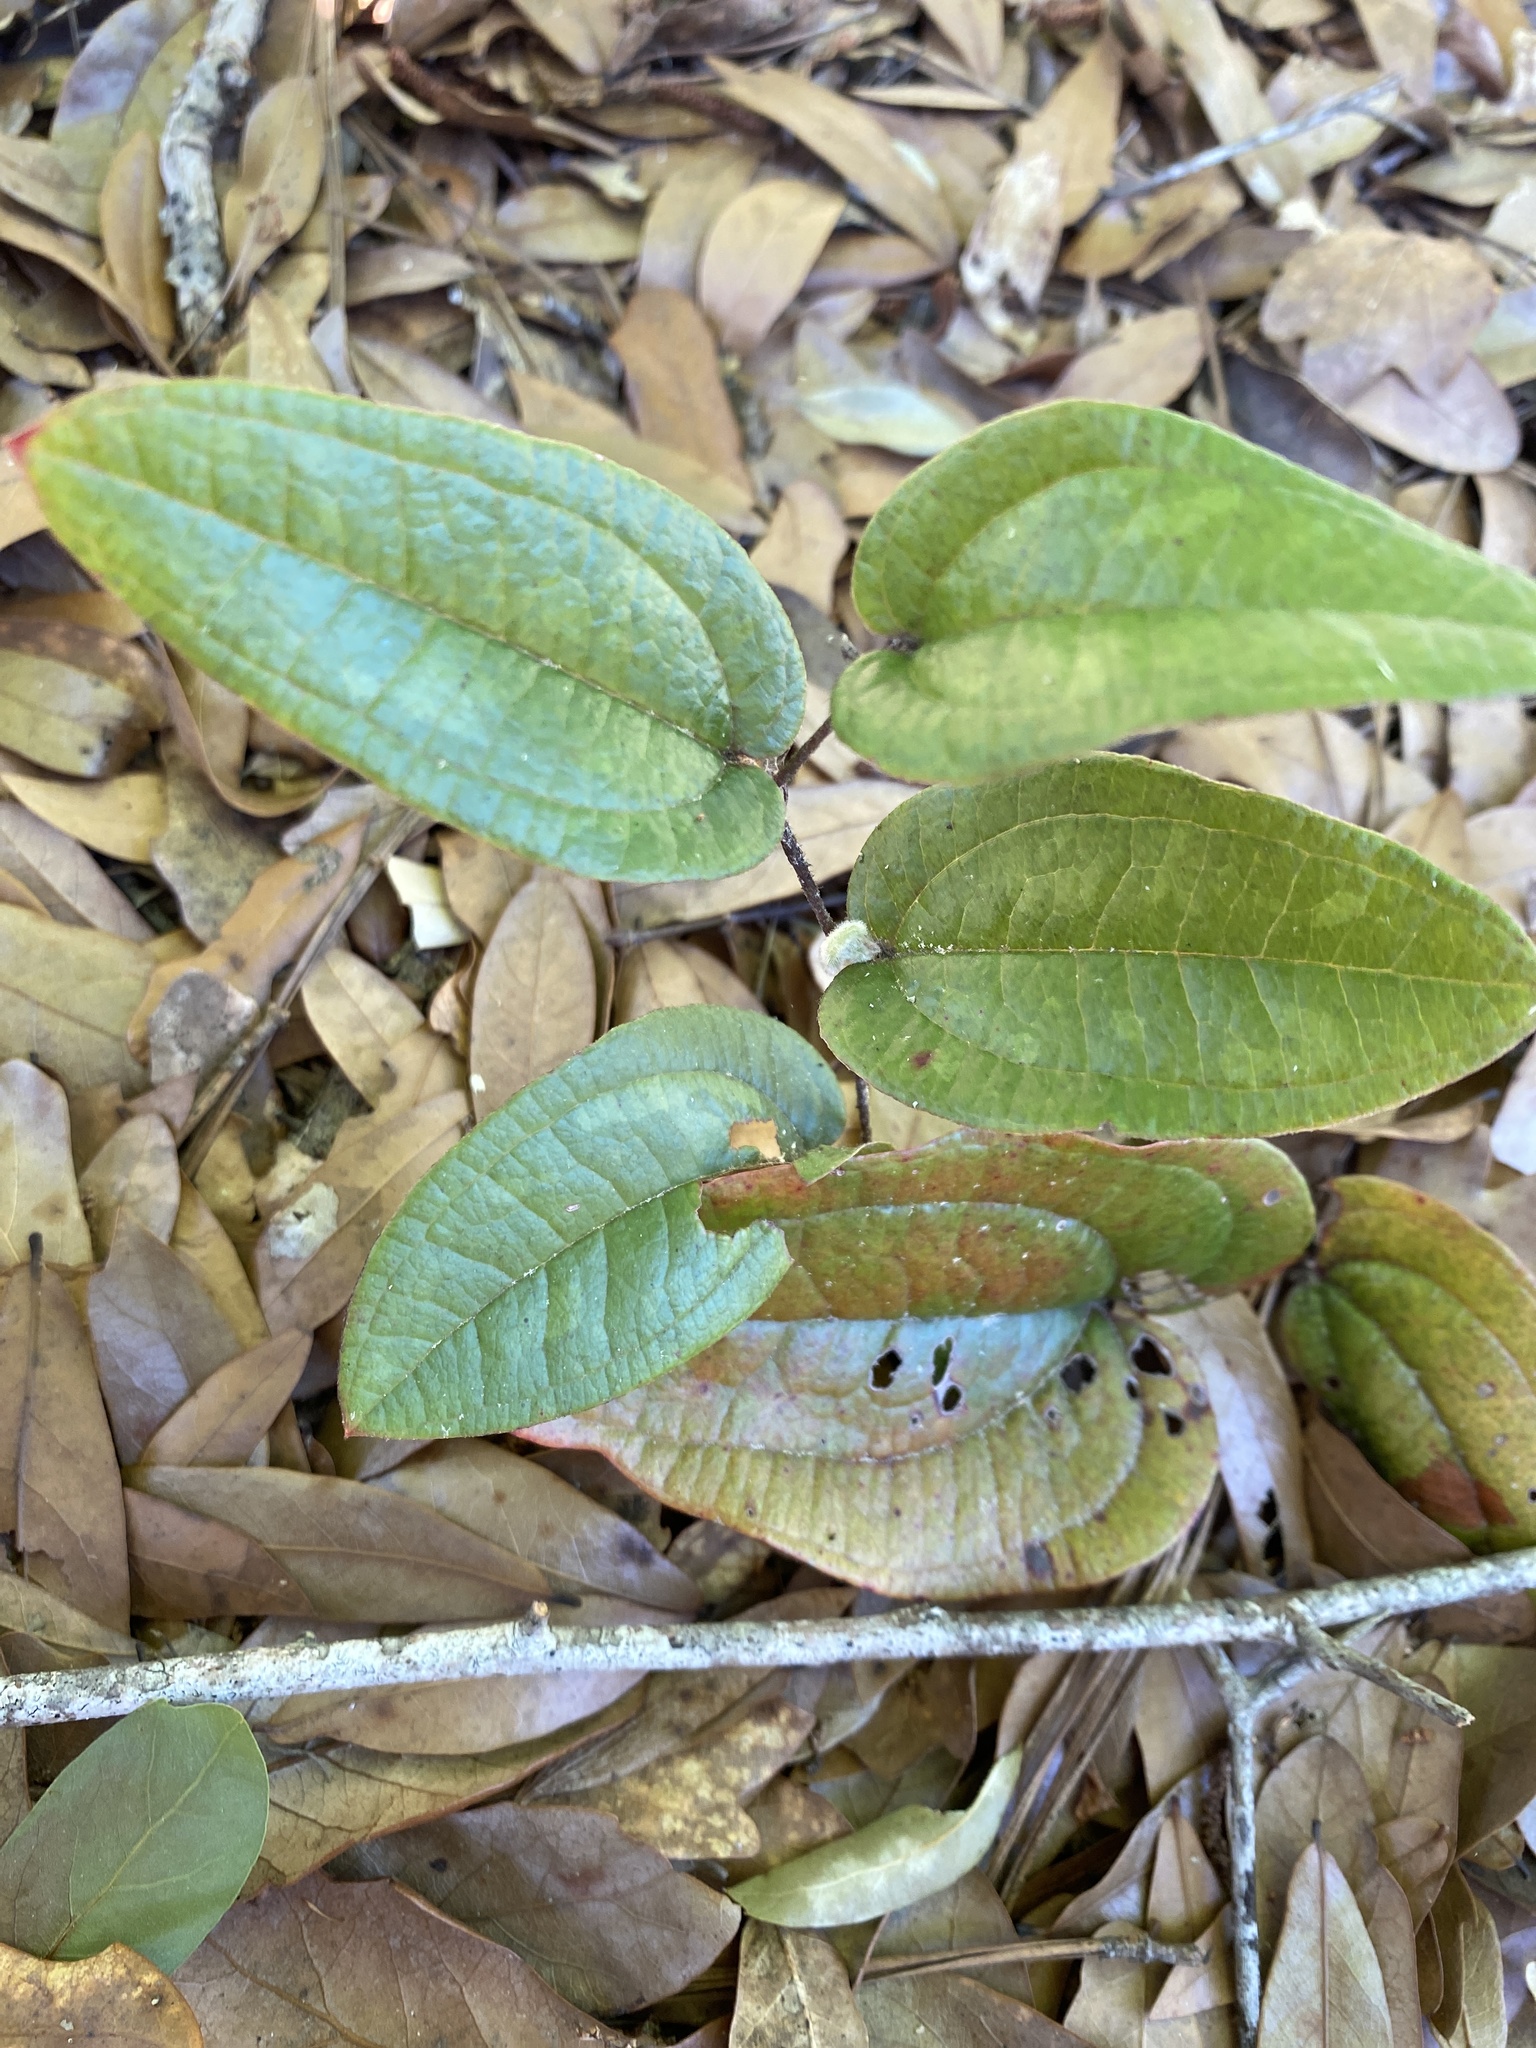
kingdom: Plantae
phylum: Tracheophyta
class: Liliopsida
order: Liliales
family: Smilacaceae
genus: Smilax
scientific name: Smilax pumila
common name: Sarsaparilla-vine
